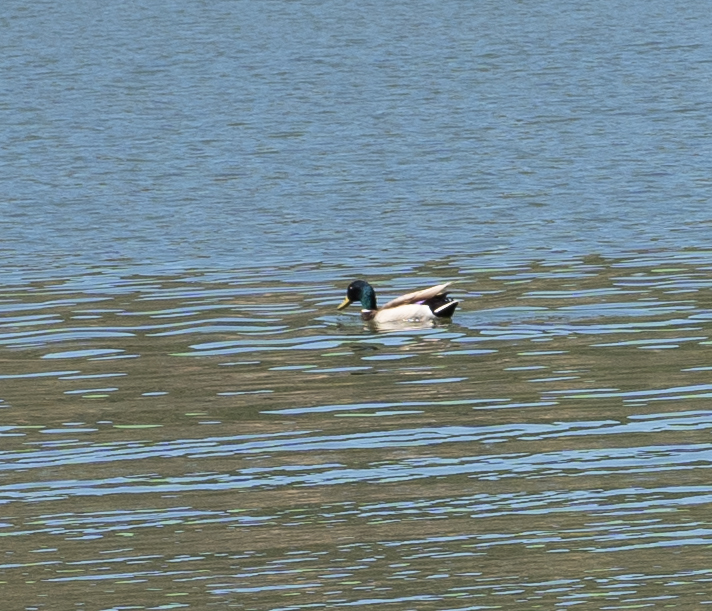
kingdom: Animalia
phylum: Chordata
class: Aves
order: Anseriformes
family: Anatidae
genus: Anas
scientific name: Anas platyrhynchos
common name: Mallard
